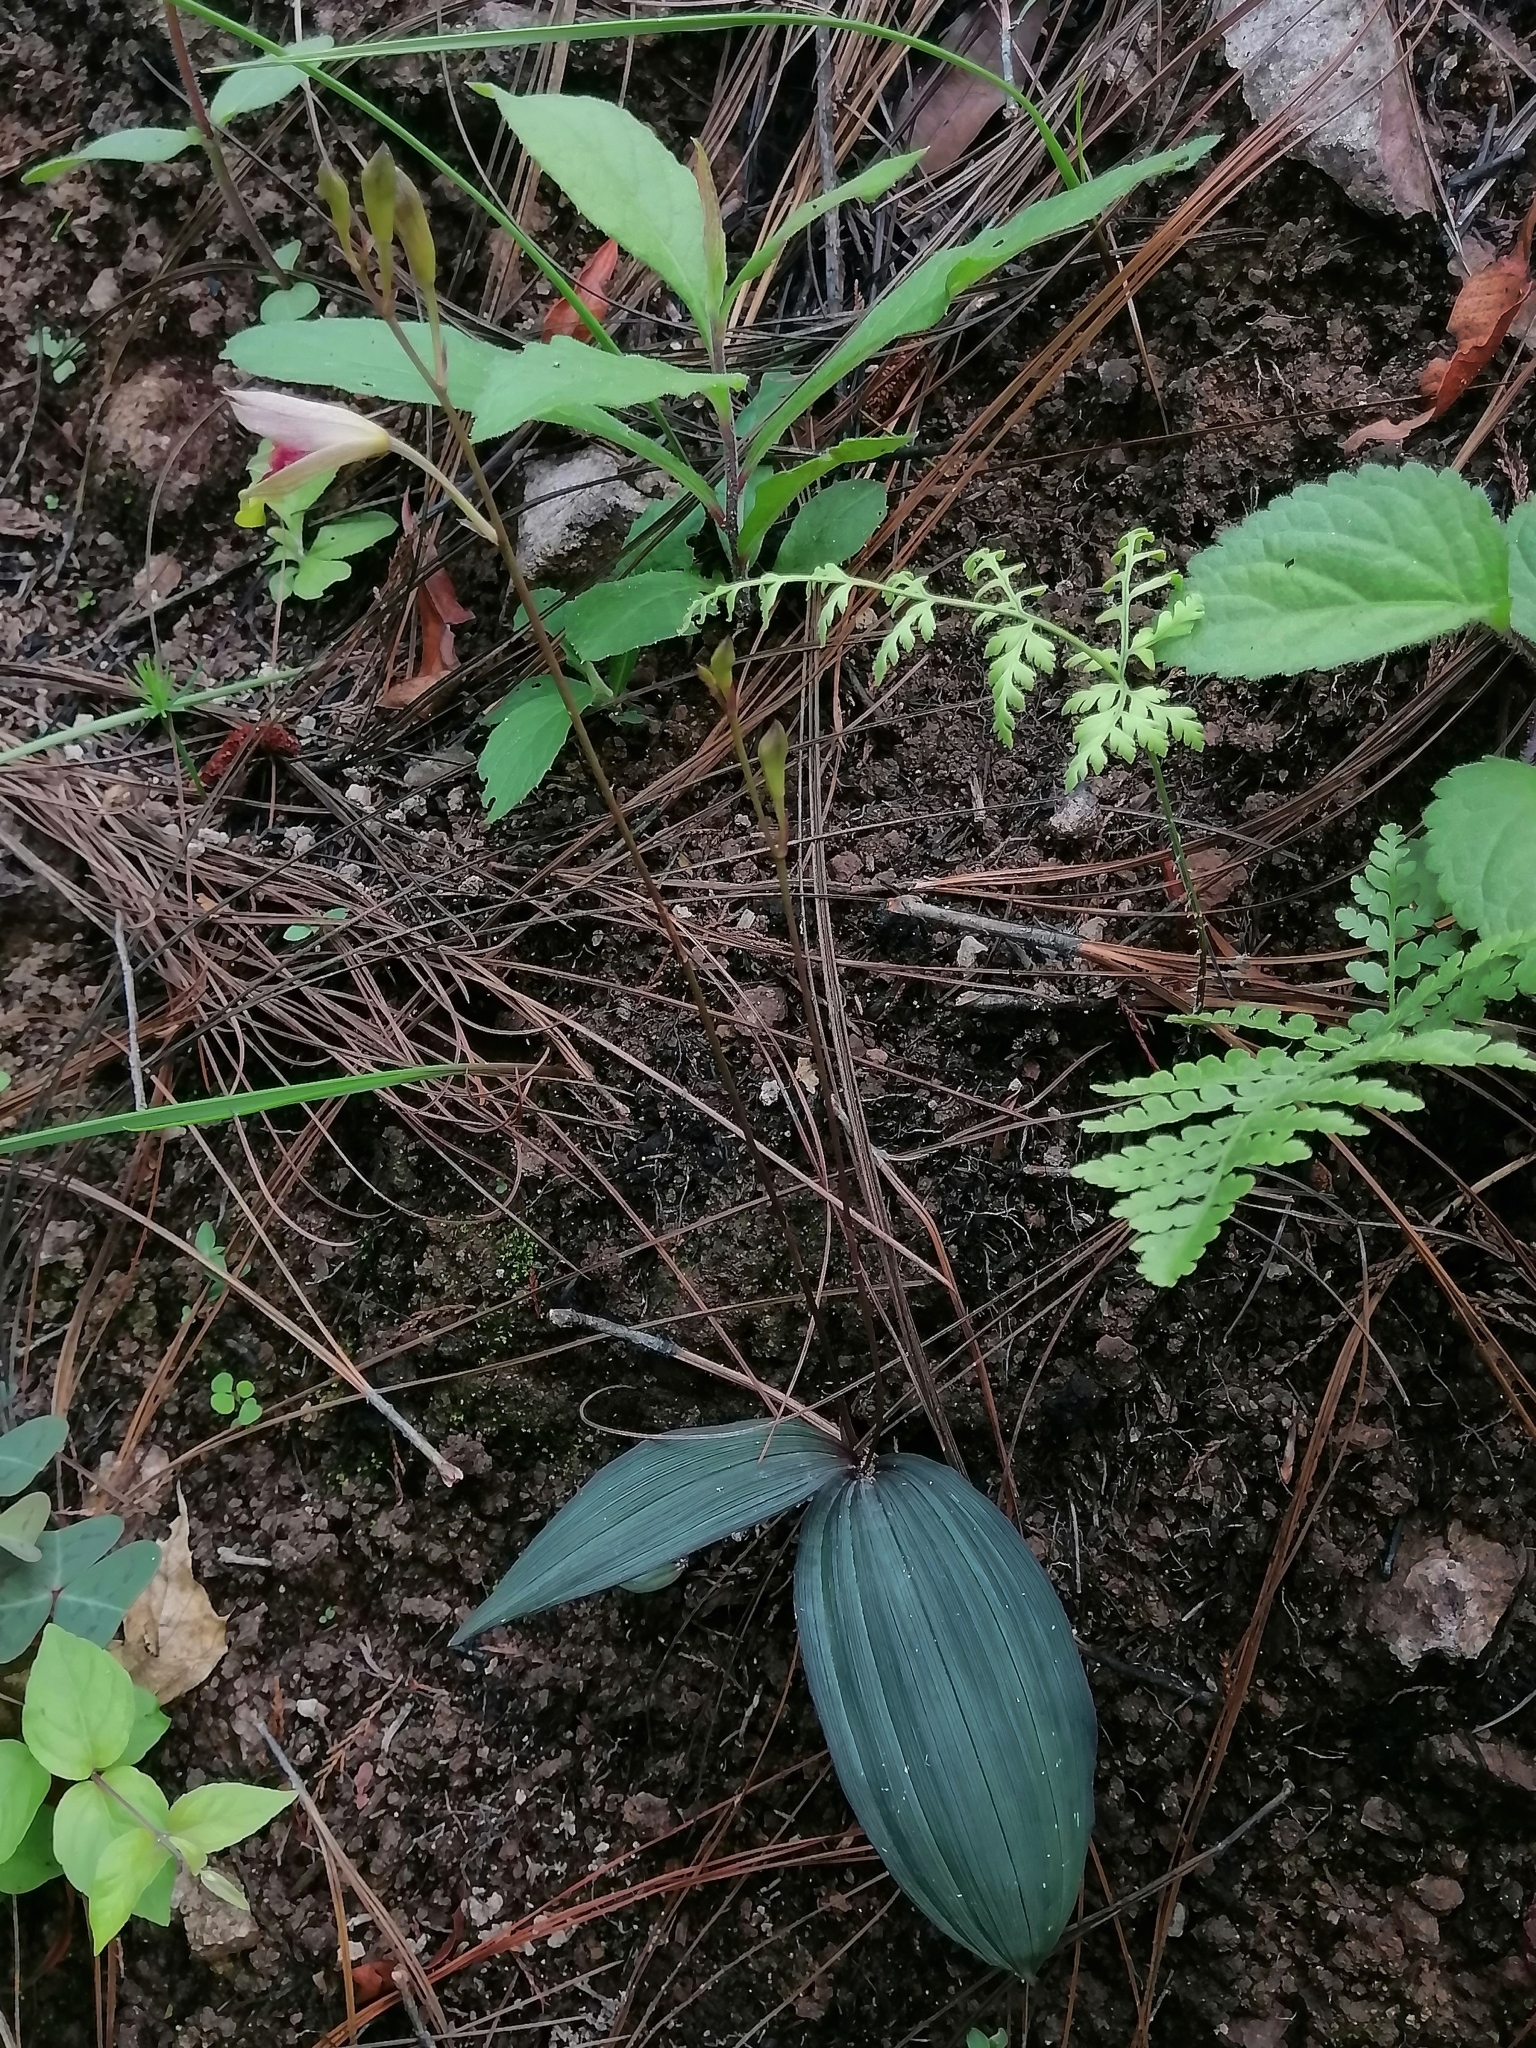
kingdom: Plantae
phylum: Tracheophyta
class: Liliopsida
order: Asparagales
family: Orchidaceae
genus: Bletia
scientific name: Bletia gracilis
